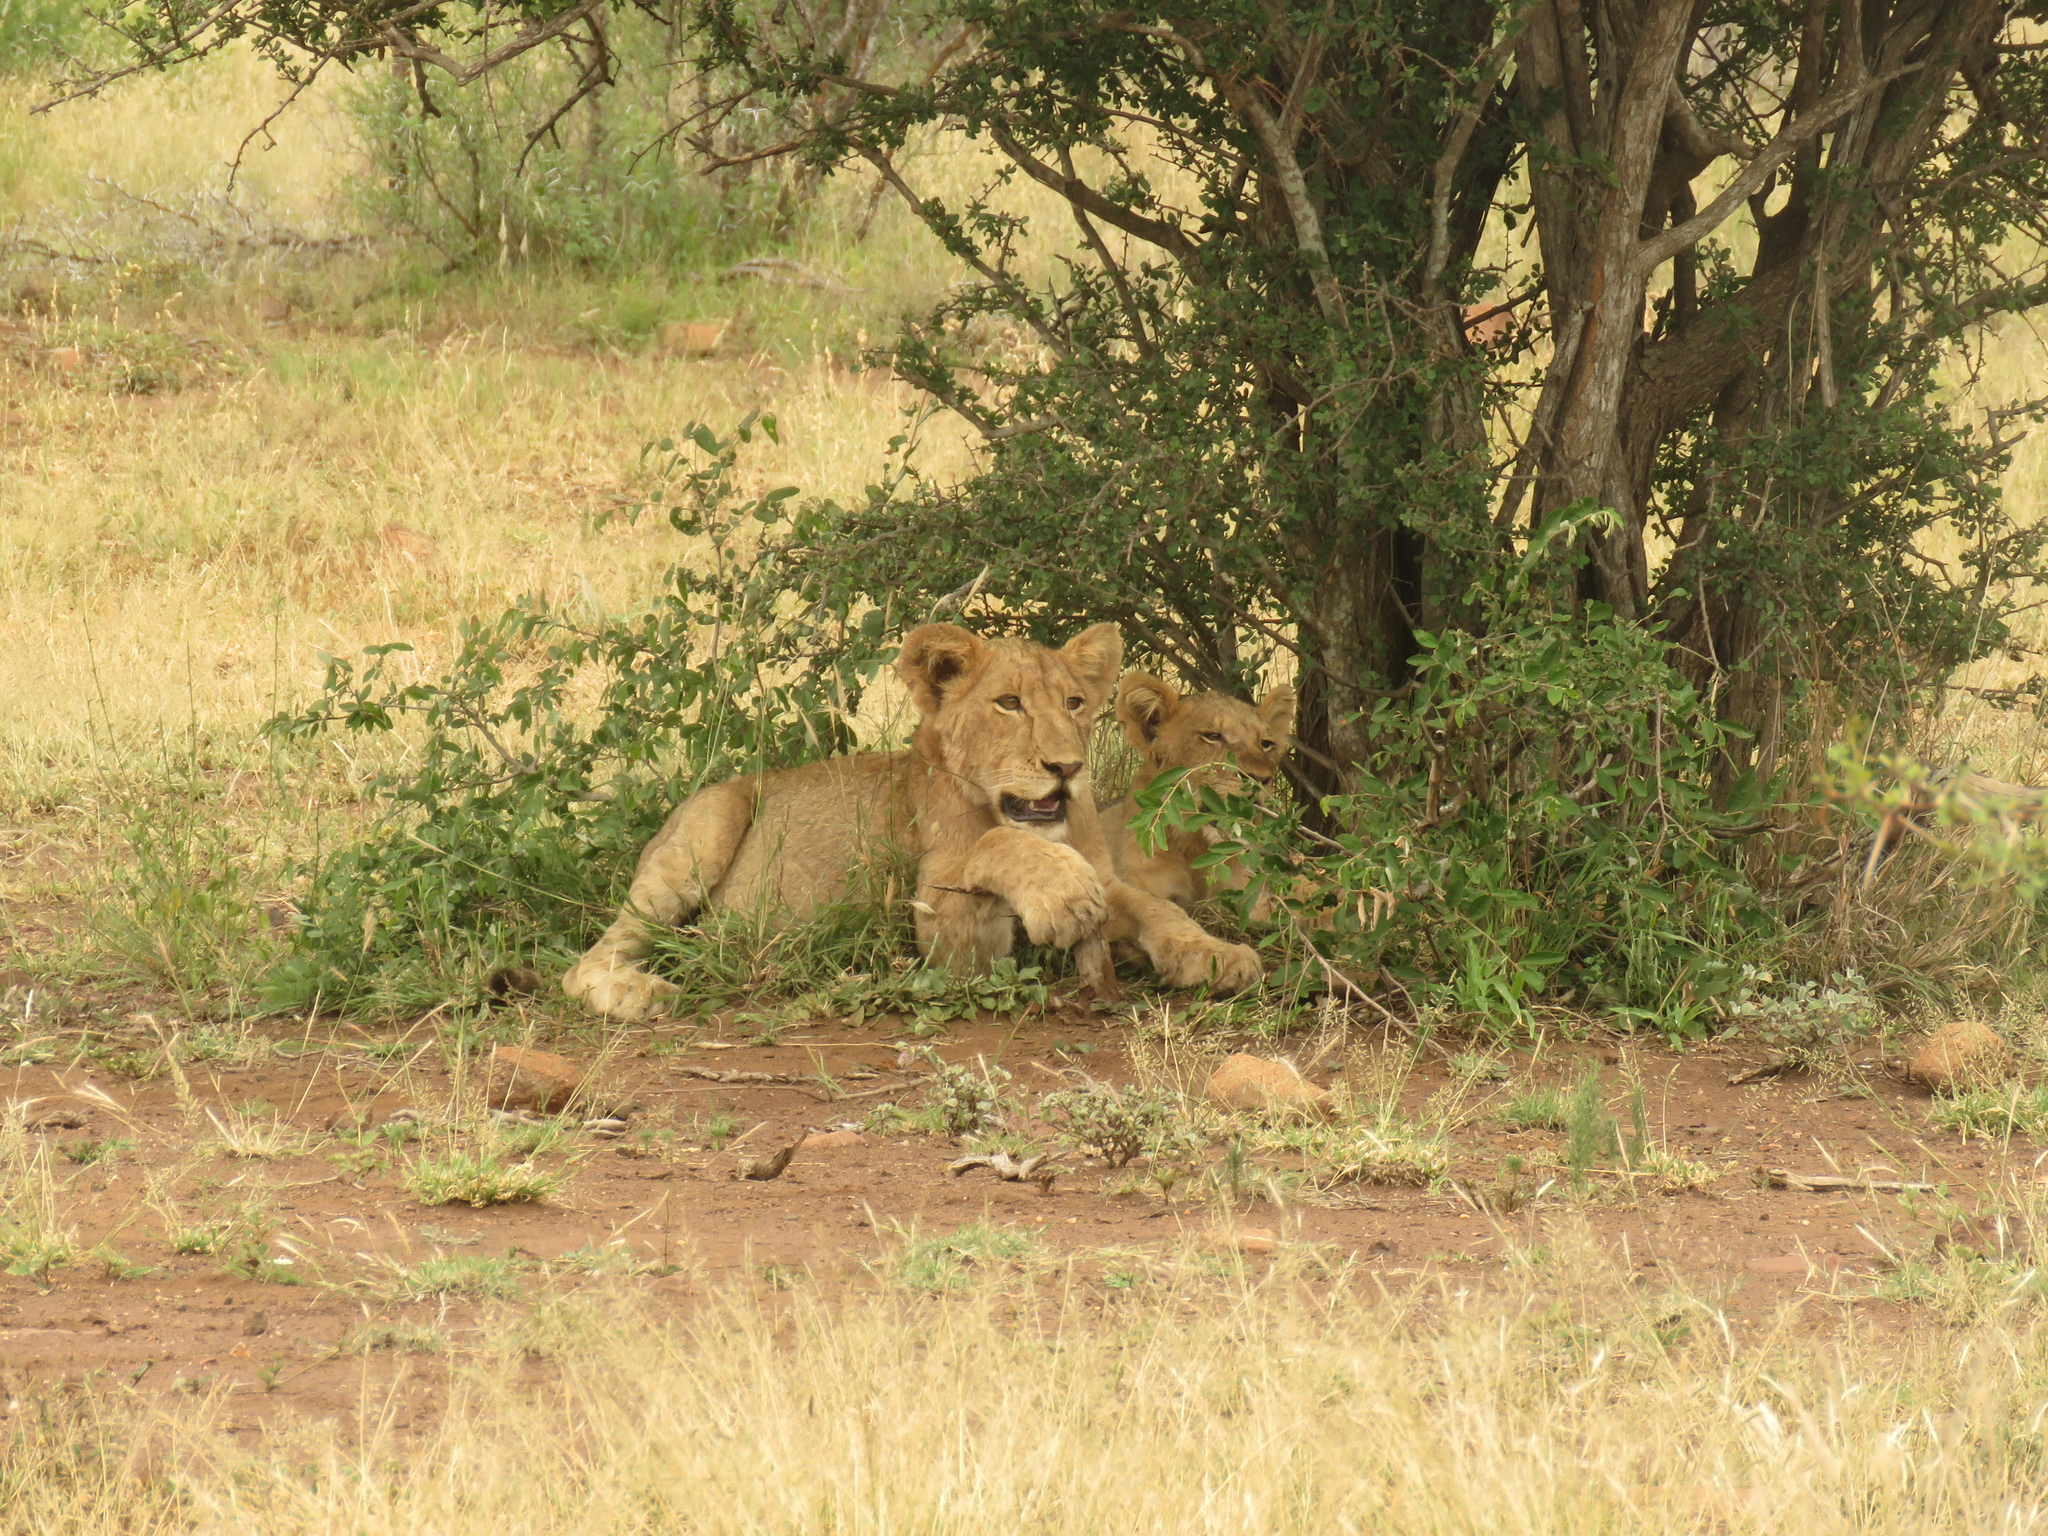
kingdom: Animalia
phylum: Chordata
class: Mammalia
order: Carnivora
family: Felidae
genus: Panthera
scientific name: Panthera leo
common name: Lion
